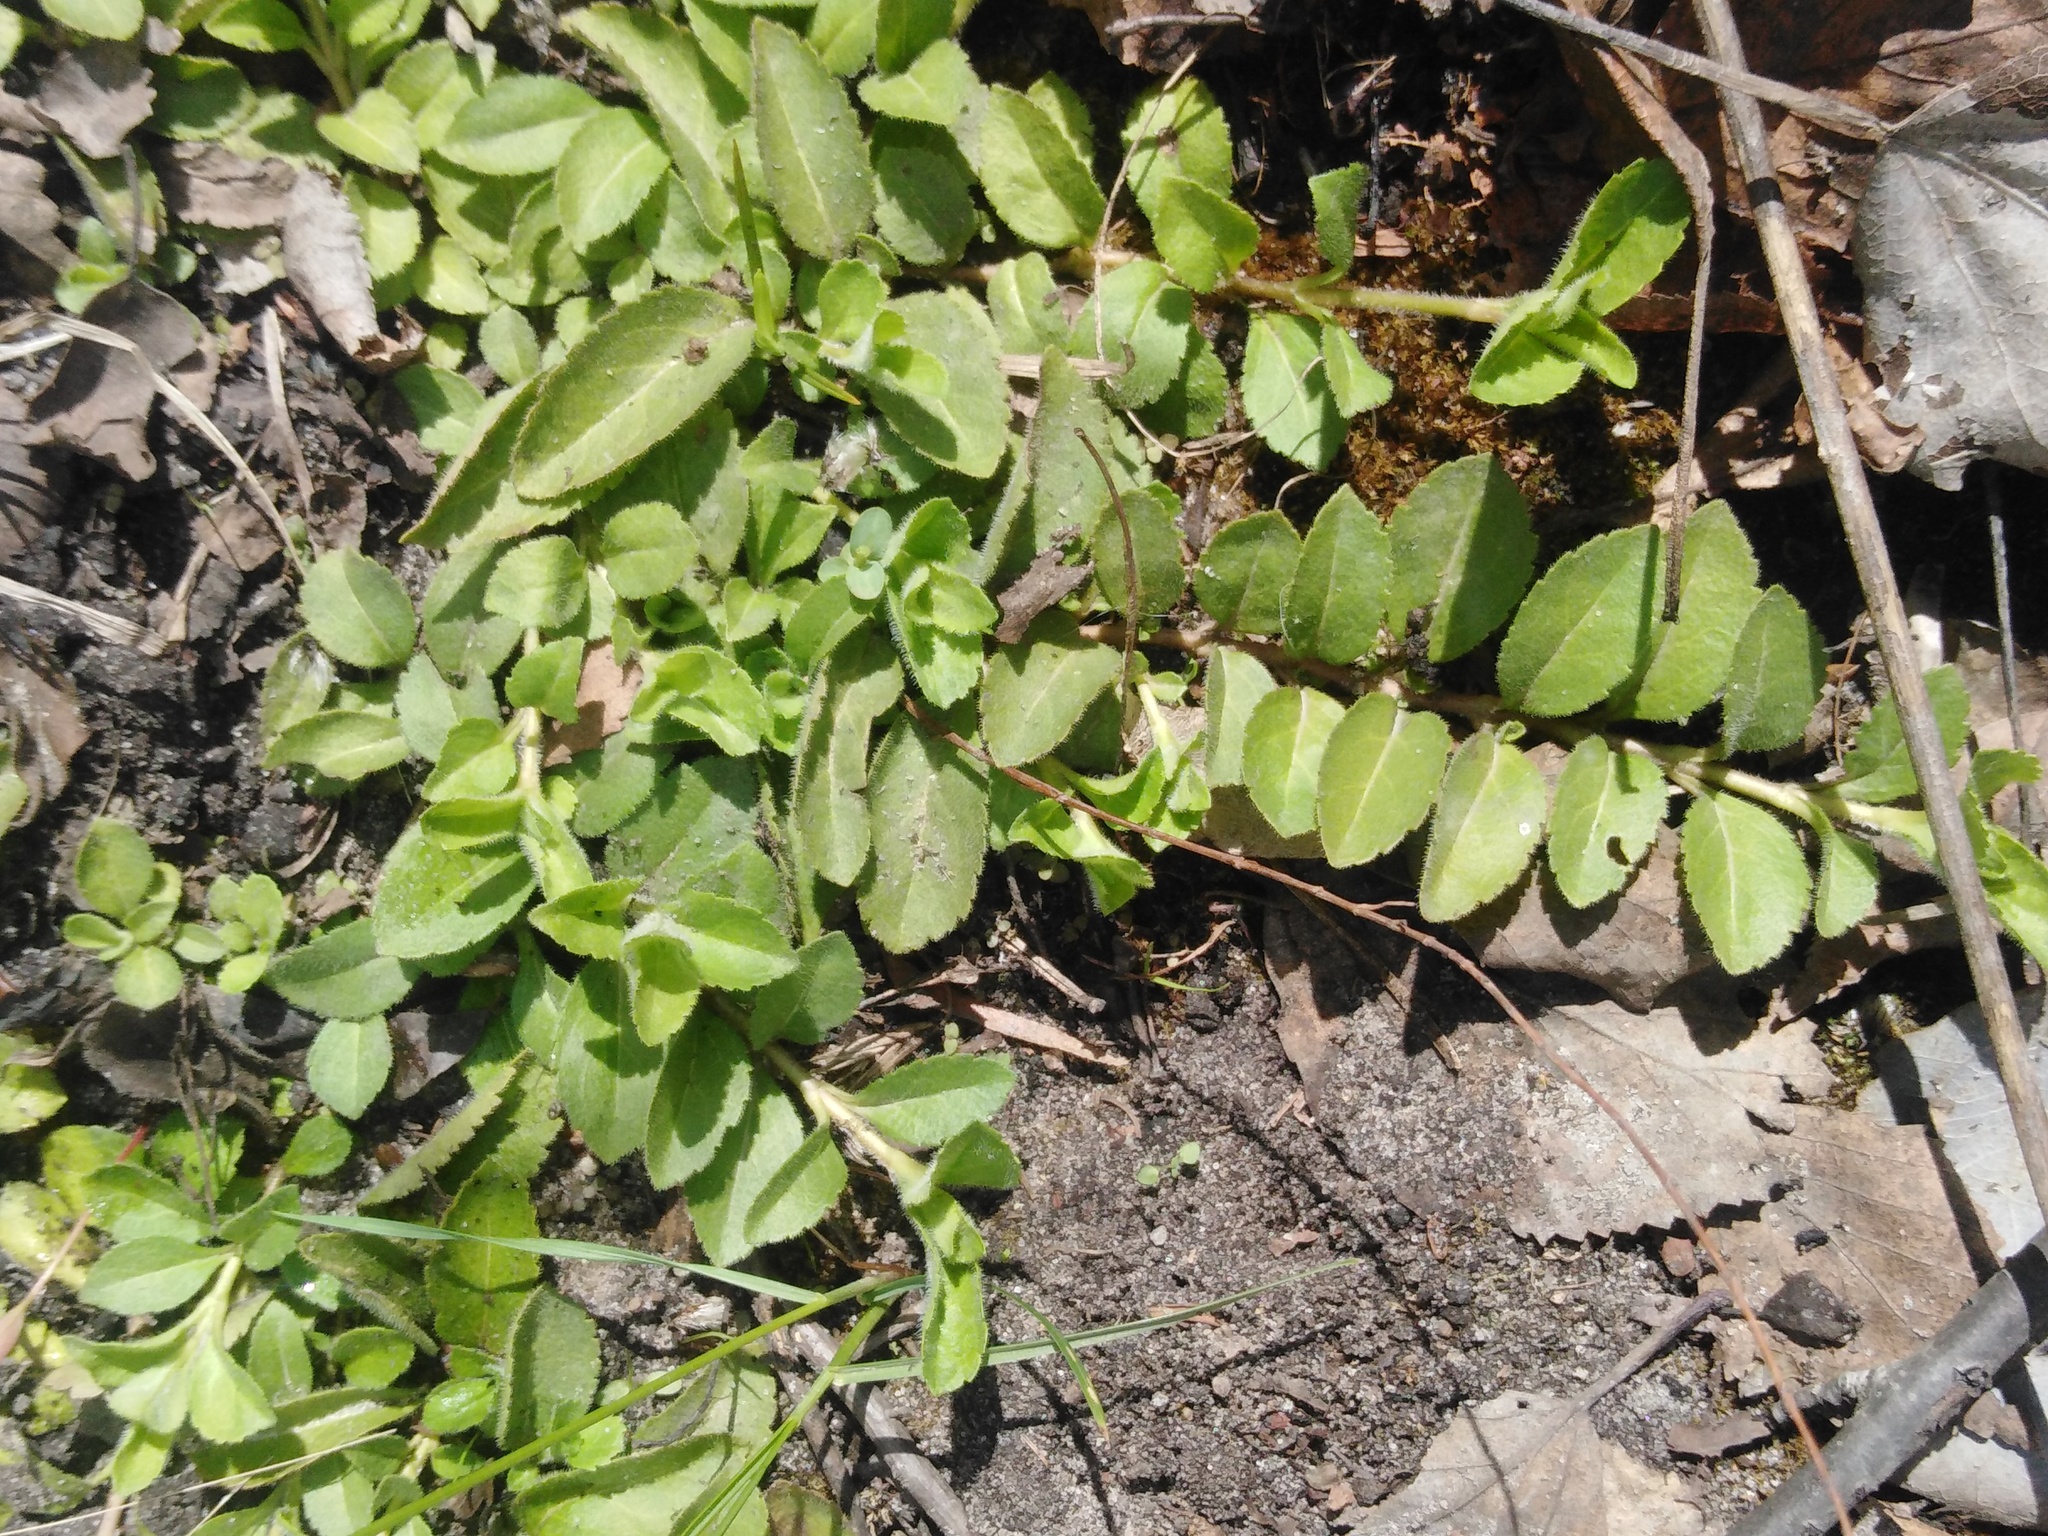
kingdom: Plantae
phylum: Tracheophyta
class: Magnoliopsida
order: Lamiales
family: Plantaginaceae
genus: Veronica
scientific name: Veronica officinalis
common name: Common speedwell
